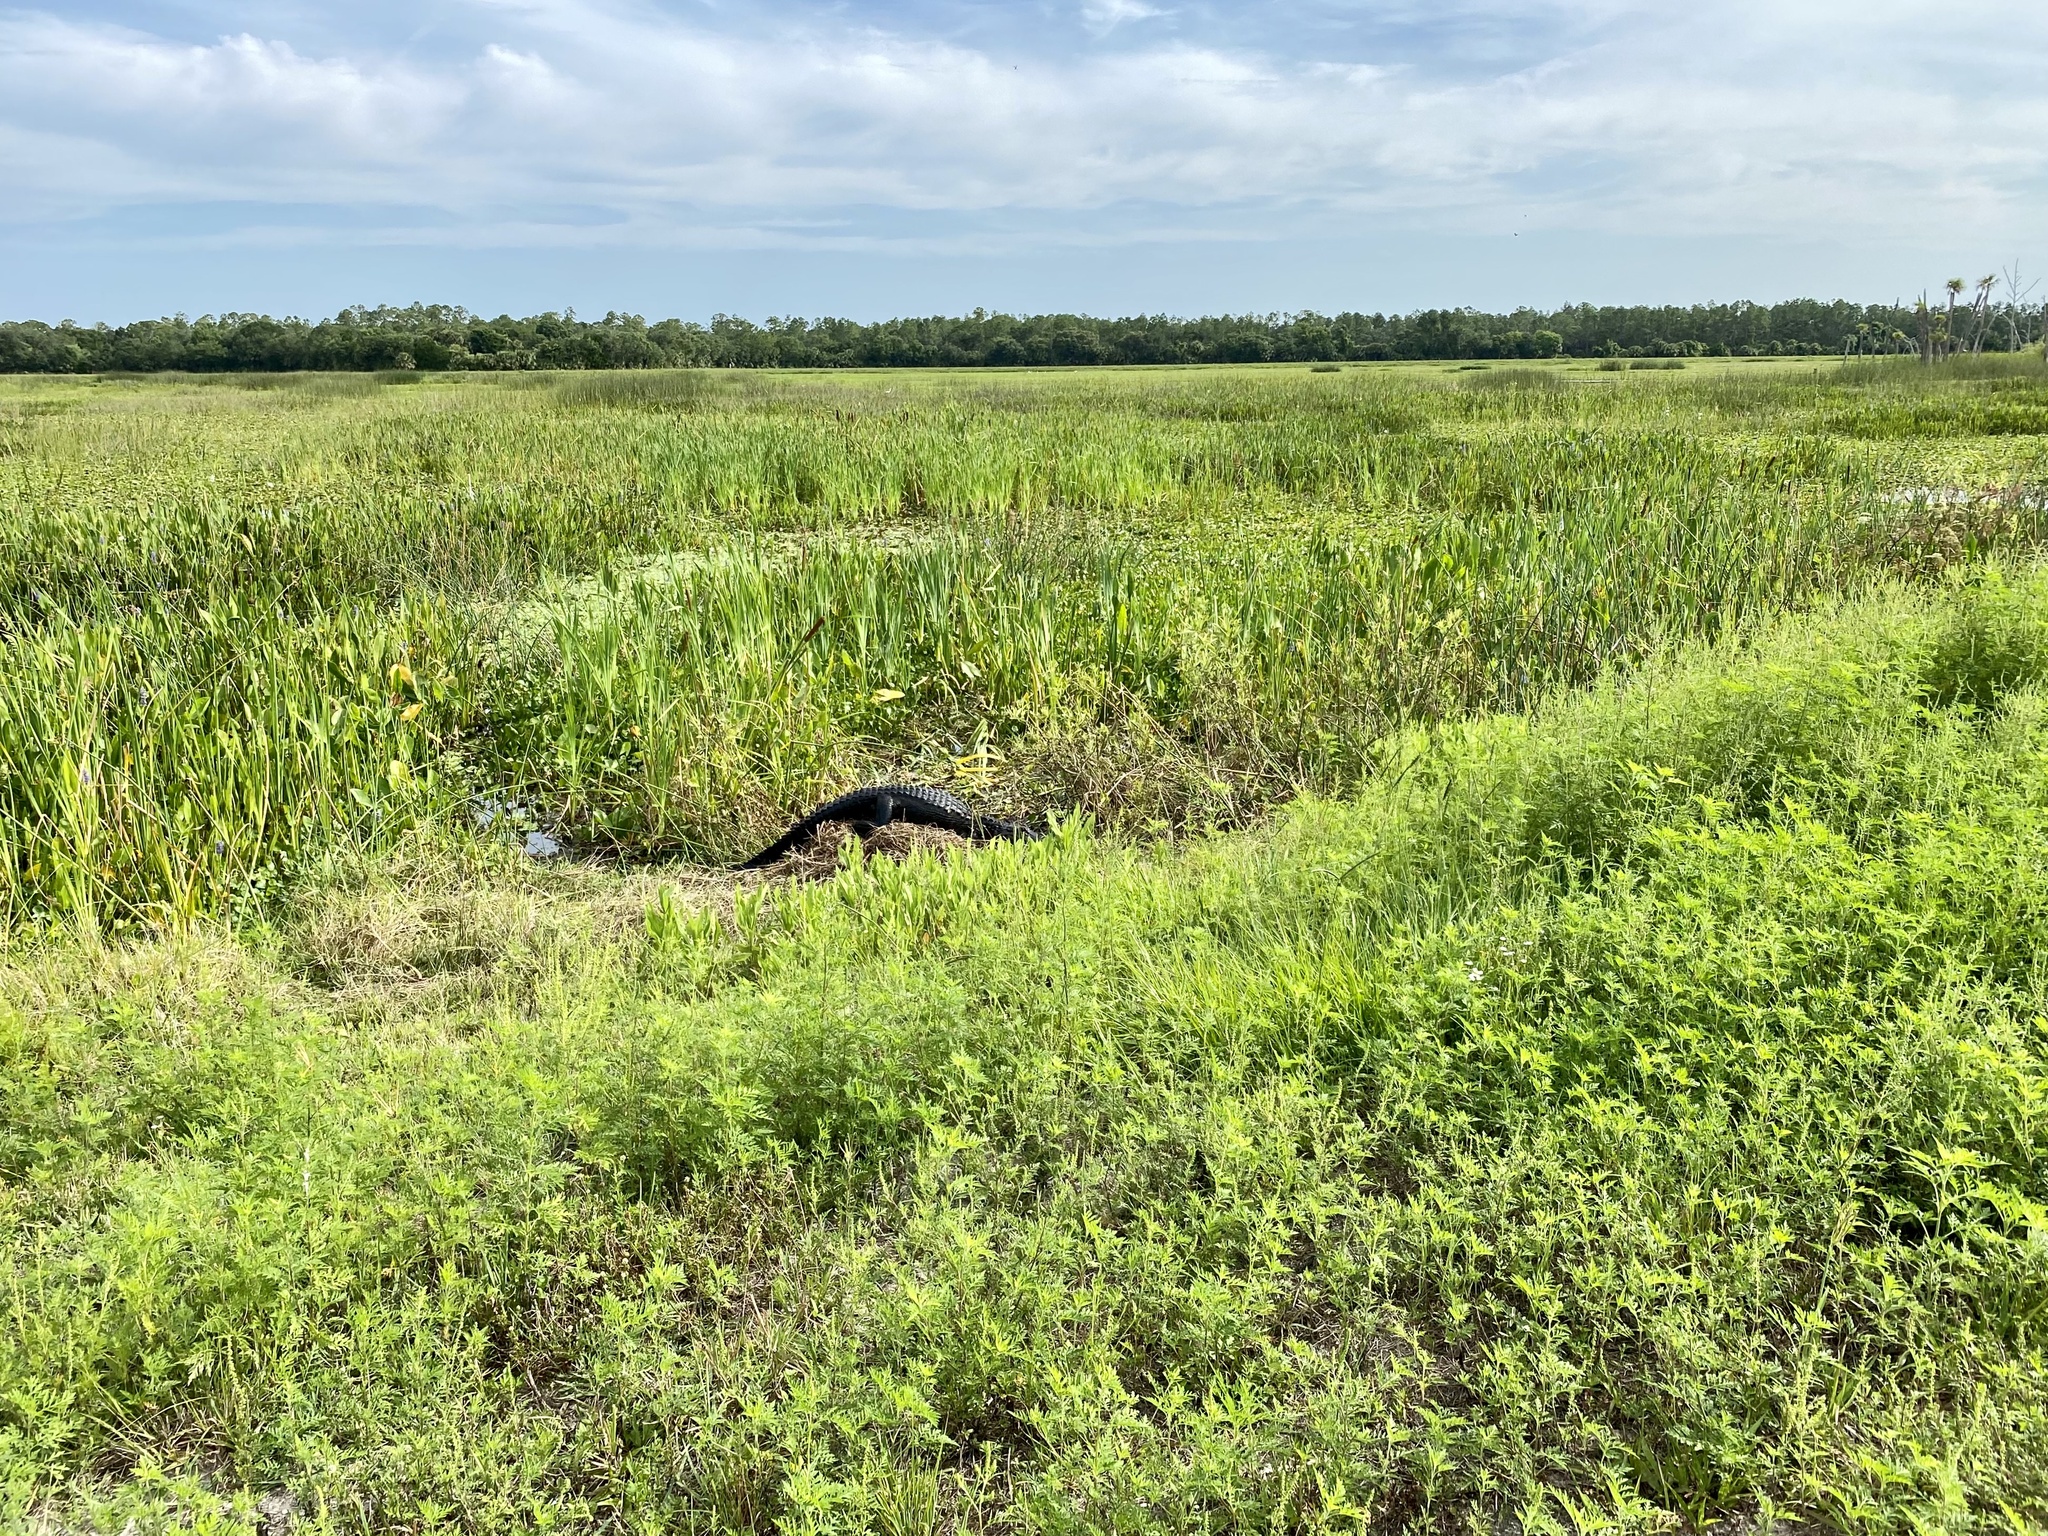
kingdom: Animalia
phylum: Chordata
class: Crocodylia
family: Alligatoridae
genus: Alligator
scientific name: Alligator mississippiensis
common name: American alligator
